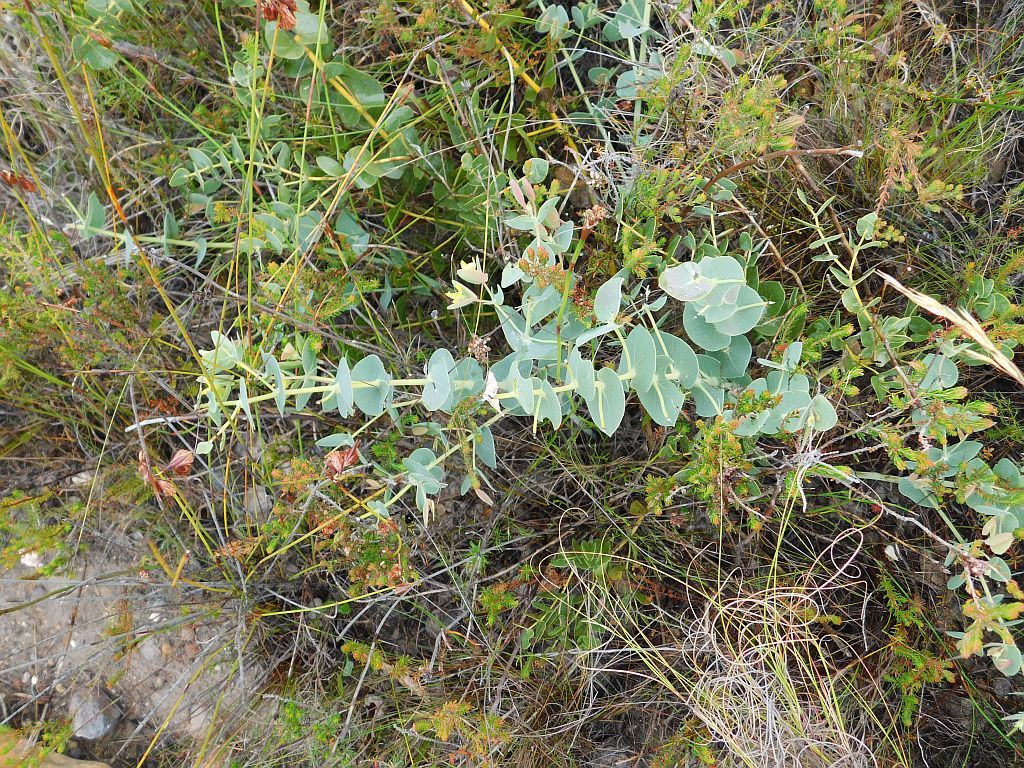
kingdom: Plantae
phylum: Tracheophyta
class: Magnoliopsida
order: Fabales
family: Fabaceae
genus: Rafnia
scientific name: Rafnia acuminata
